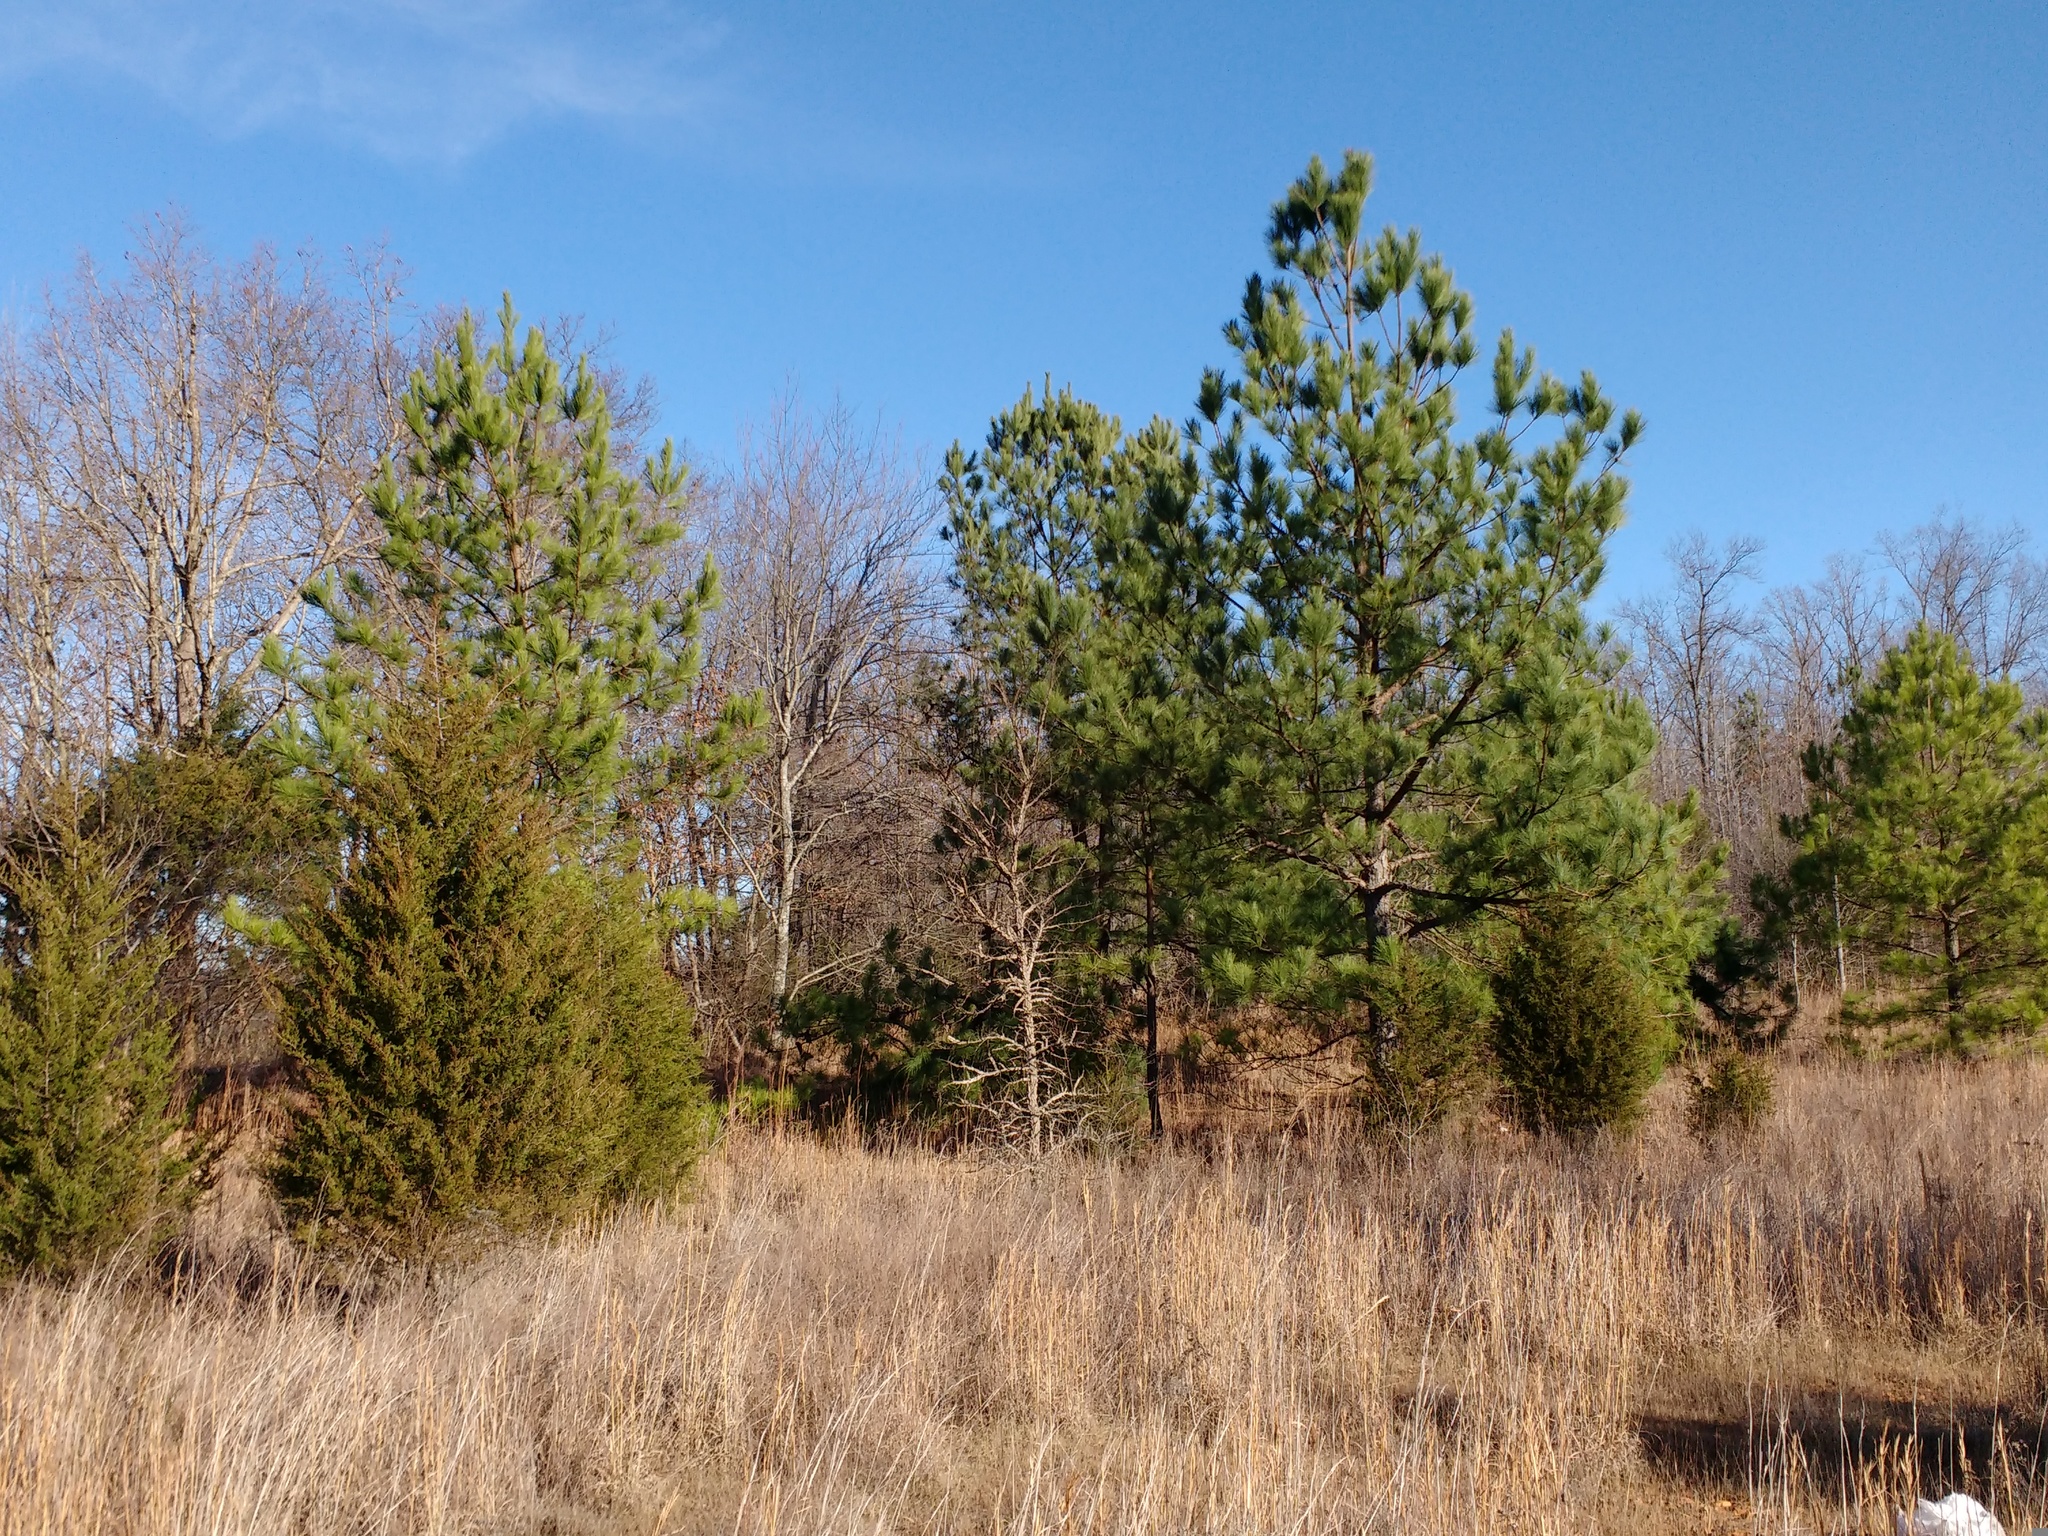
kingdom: Plantae
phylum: Tracheophyta
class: Pinopsida
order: Pinales
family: Pinaceae
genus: Pinus
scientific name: Pinus taeda
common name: Loblolly pine
